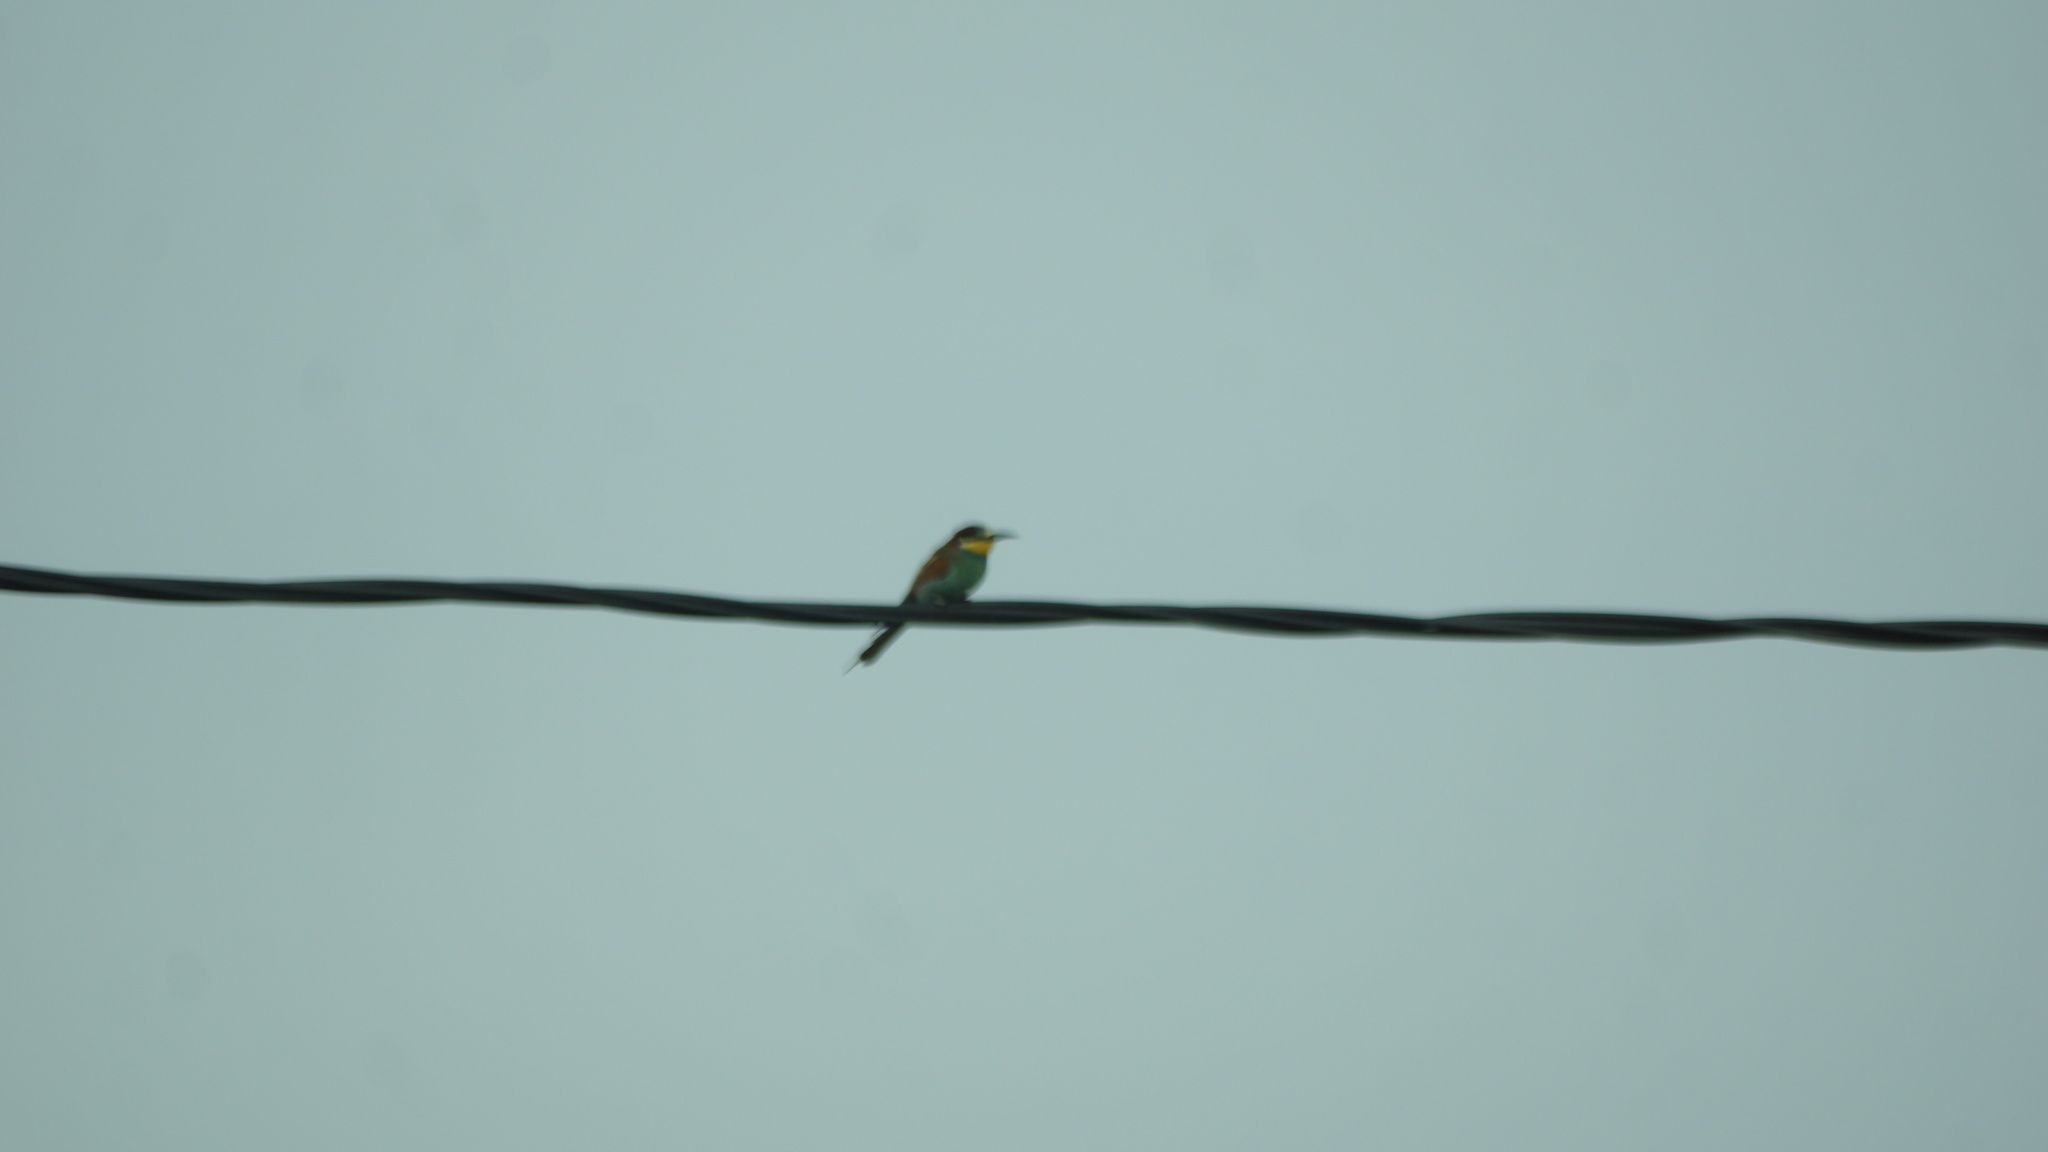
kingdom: Animalia
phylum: Chordata
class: Aves
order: Coraciiformes
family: Meropidae
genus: Merops
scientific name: Merops apiaster
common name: European bee-eater
